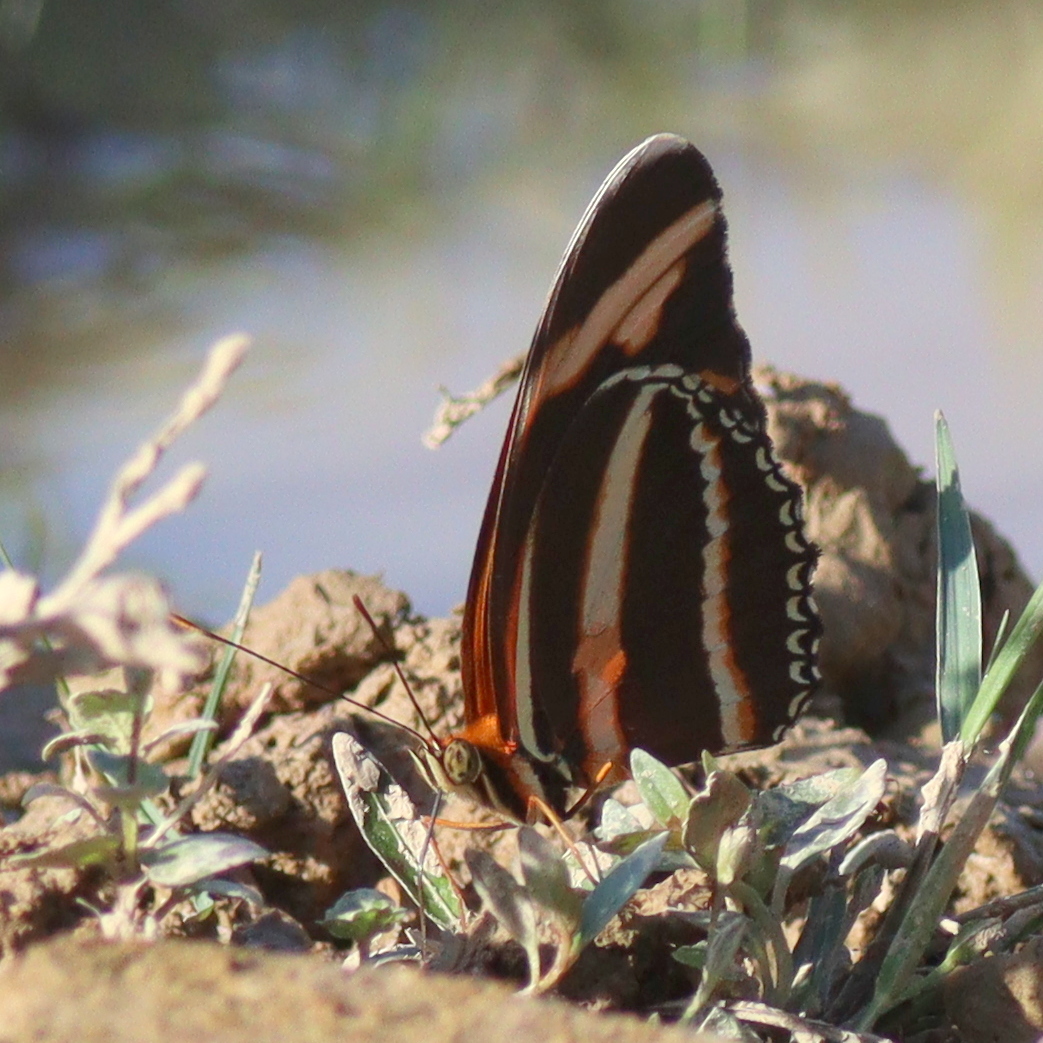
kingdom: Animalia
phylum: Arthropoda
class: Insecta
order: Lepidoptera
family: Nymphalidae
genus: Dryadula
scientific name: Dryadula phaetusa
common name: Banded orange heliconian
